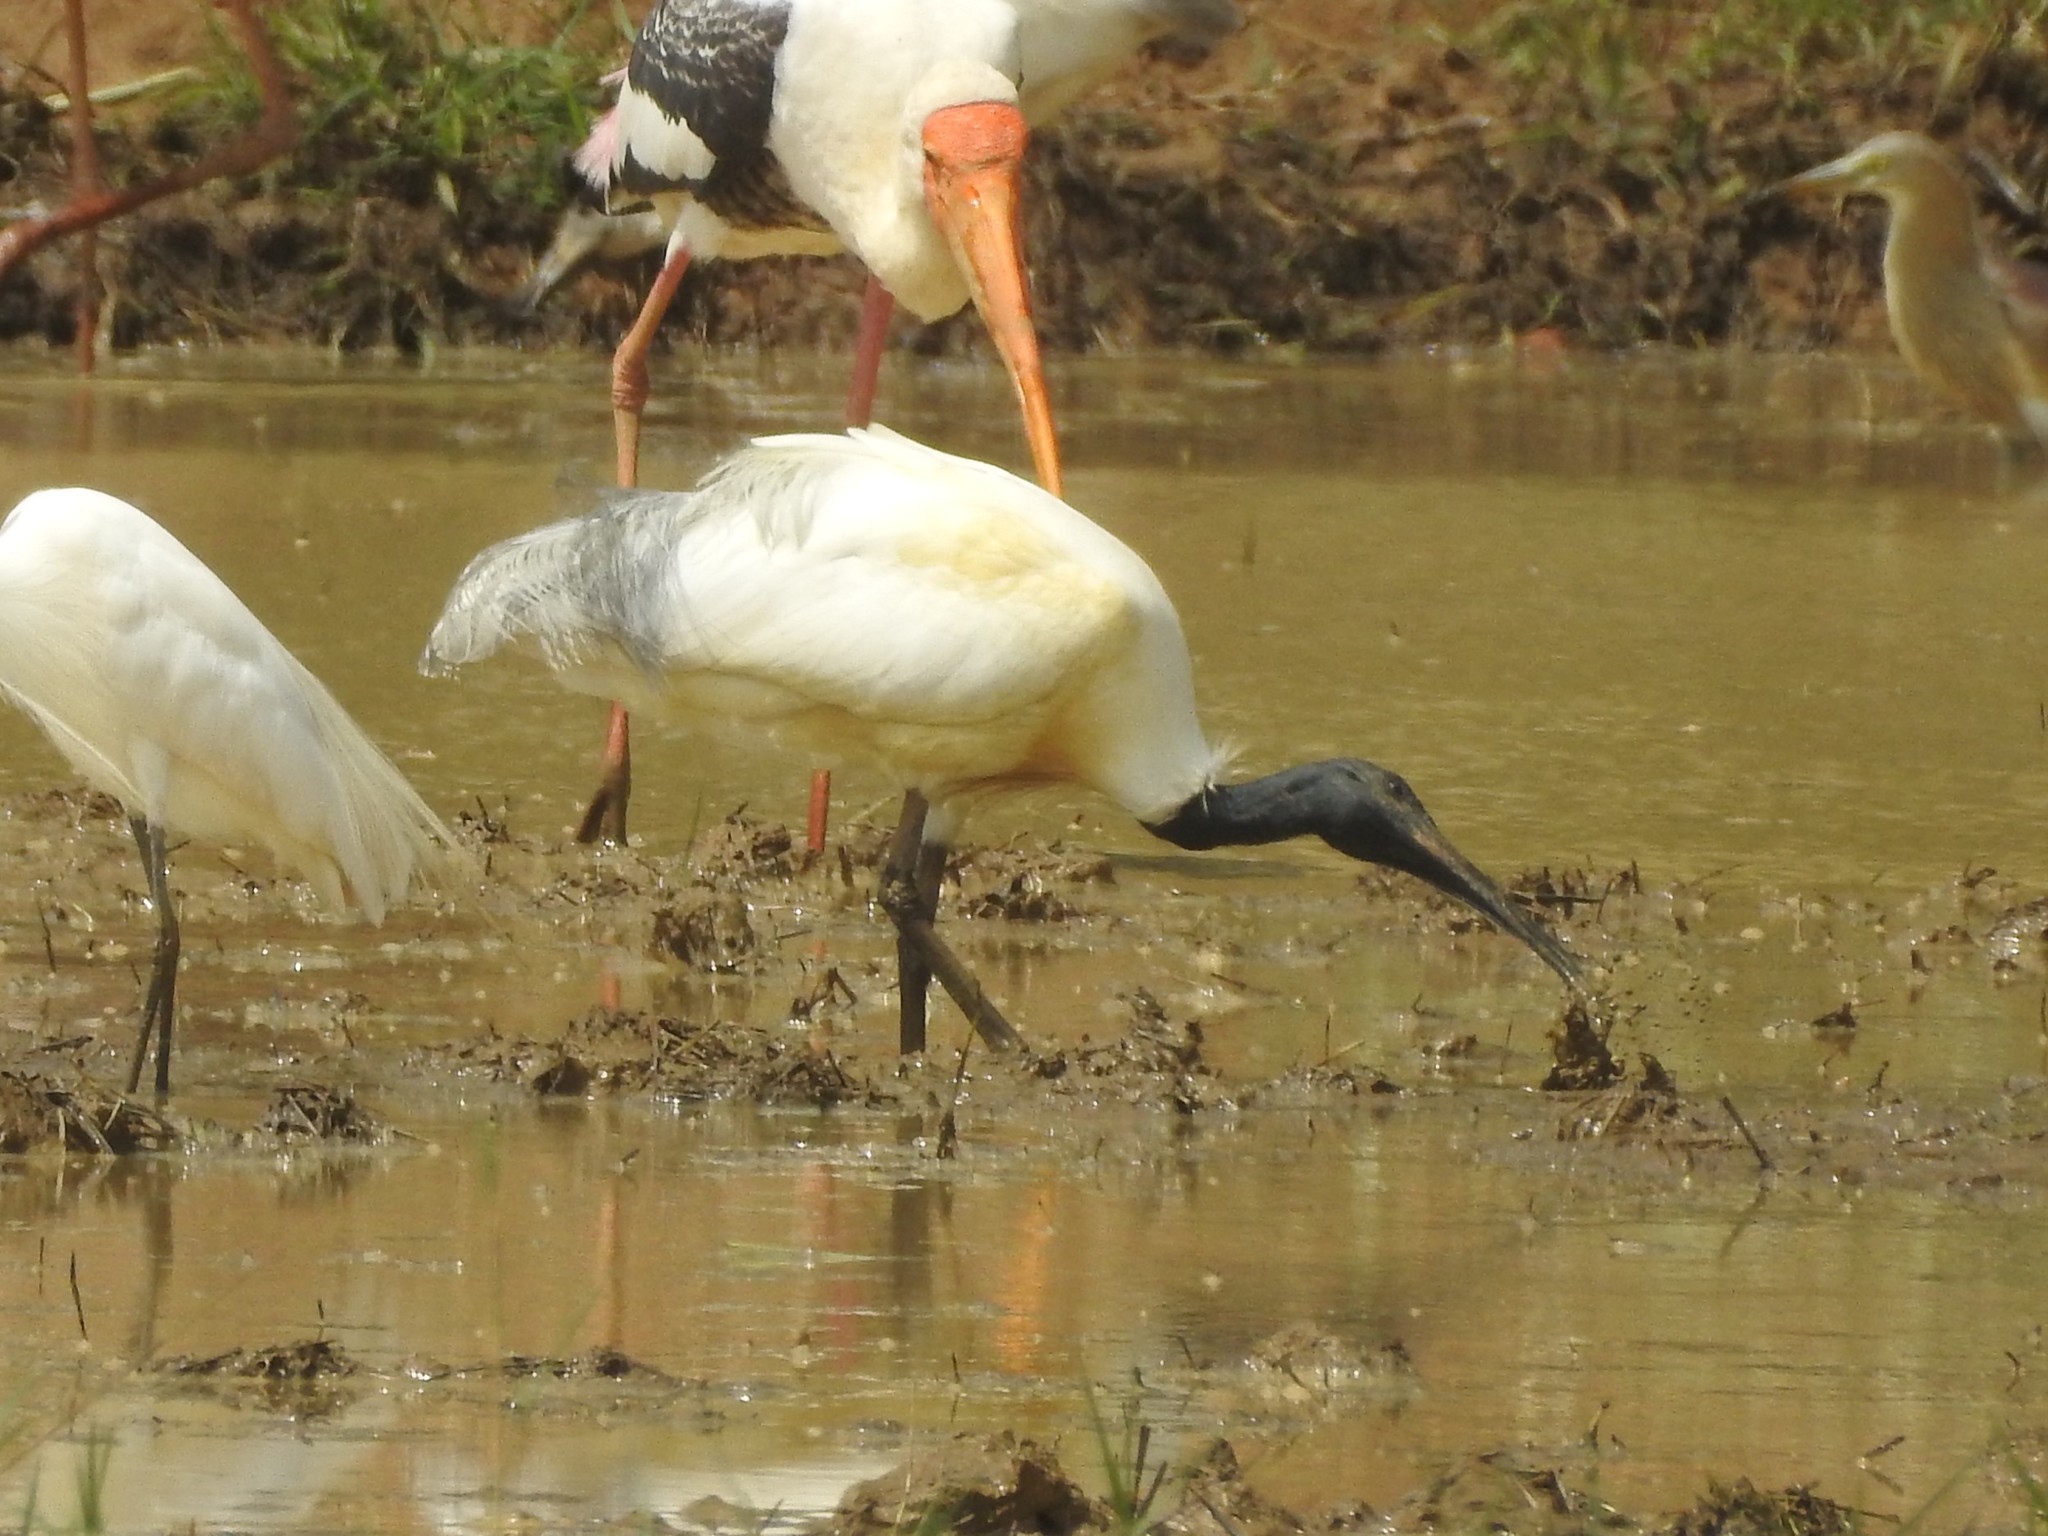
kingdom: Animalia
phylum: Chordata
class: Aves
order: Pelecaniformes
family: Threskiornithidae
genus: Threskiornis
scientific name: Threskiornis melanocephalus
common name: Black-headed ibis
